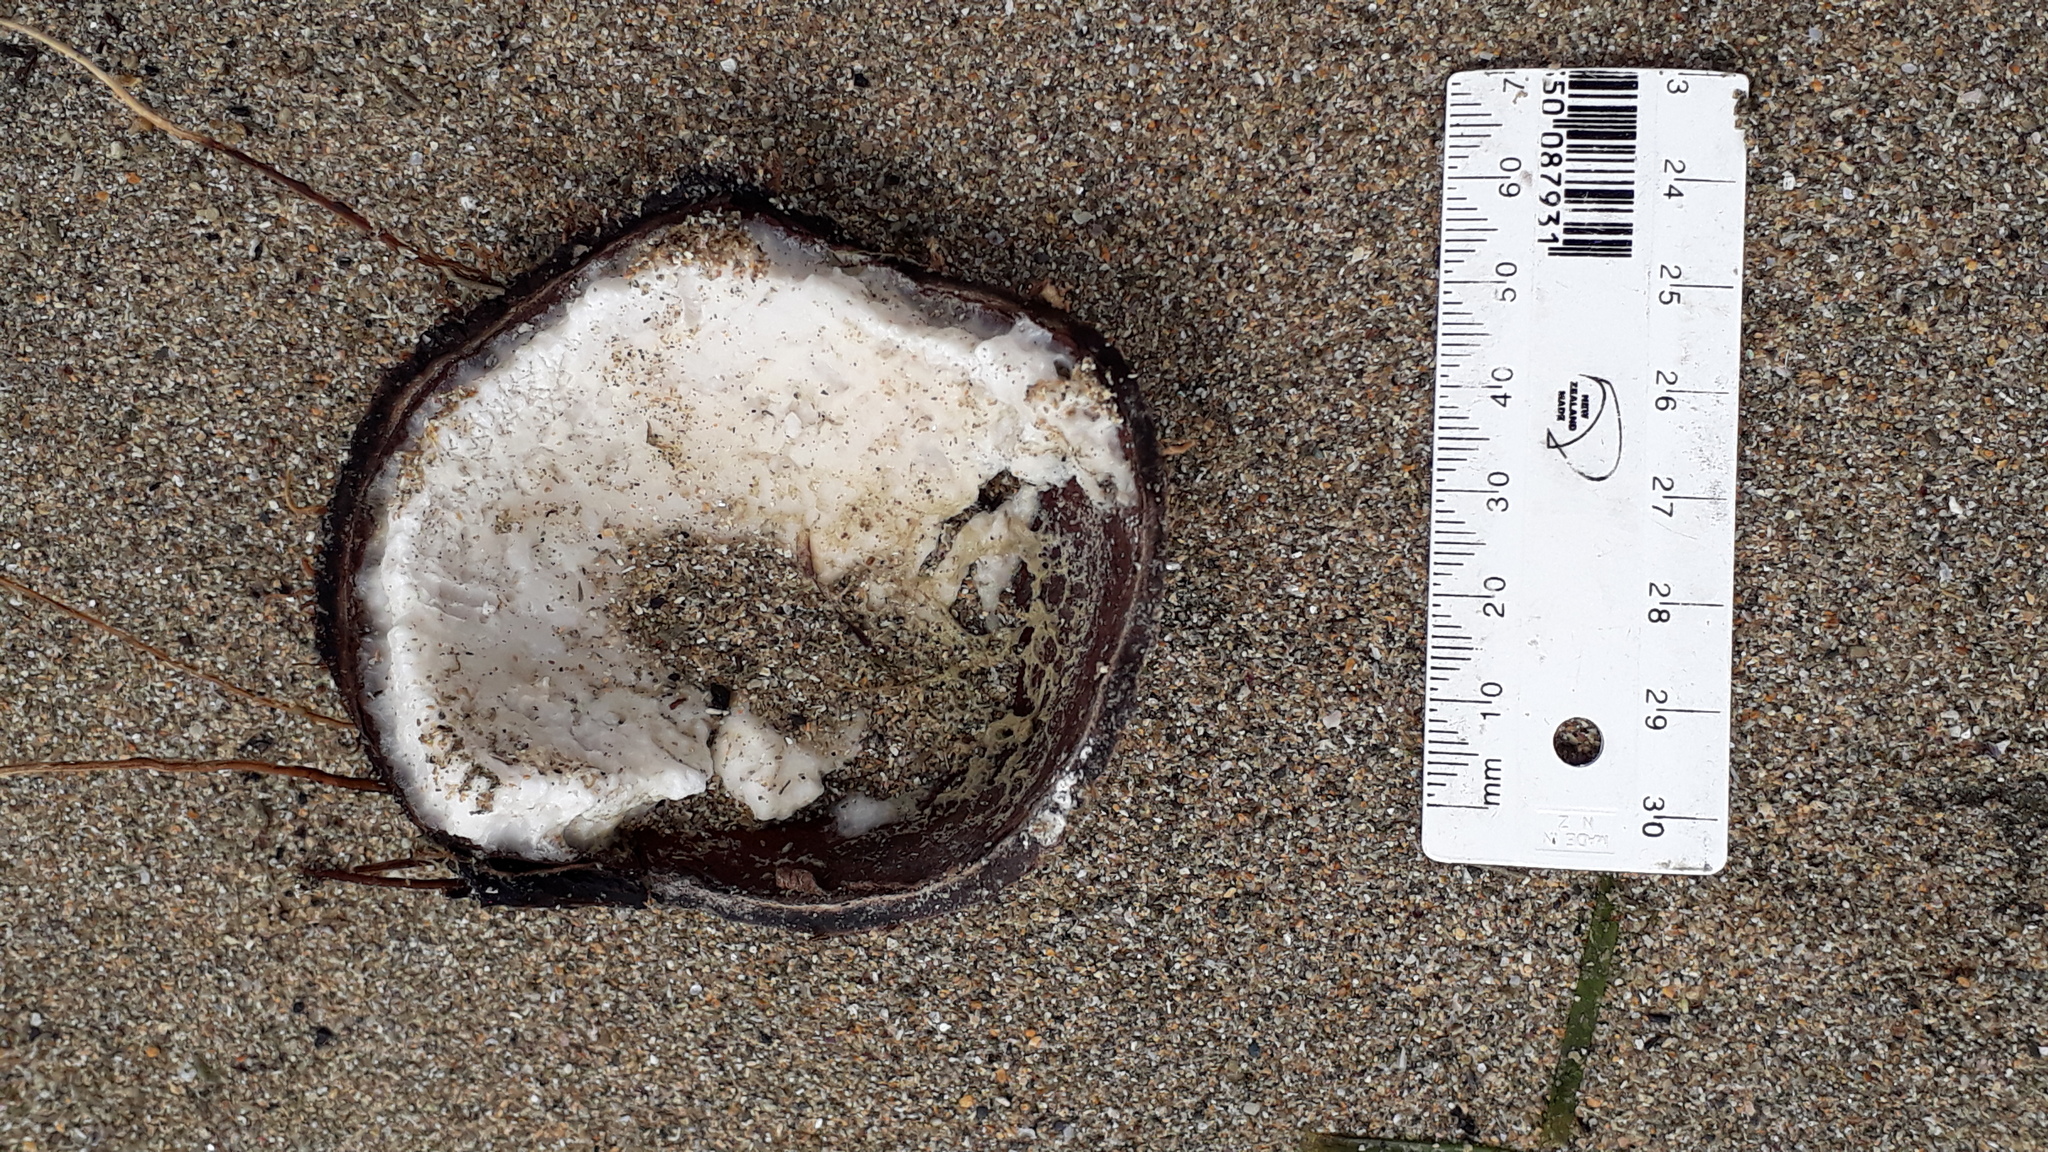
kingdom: Plantae
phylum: Tracheophyta
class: Liliopsida
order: Arecales
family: Arecaceae
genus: Cocos
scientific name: Cocos nucifera
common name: Coconut palm
